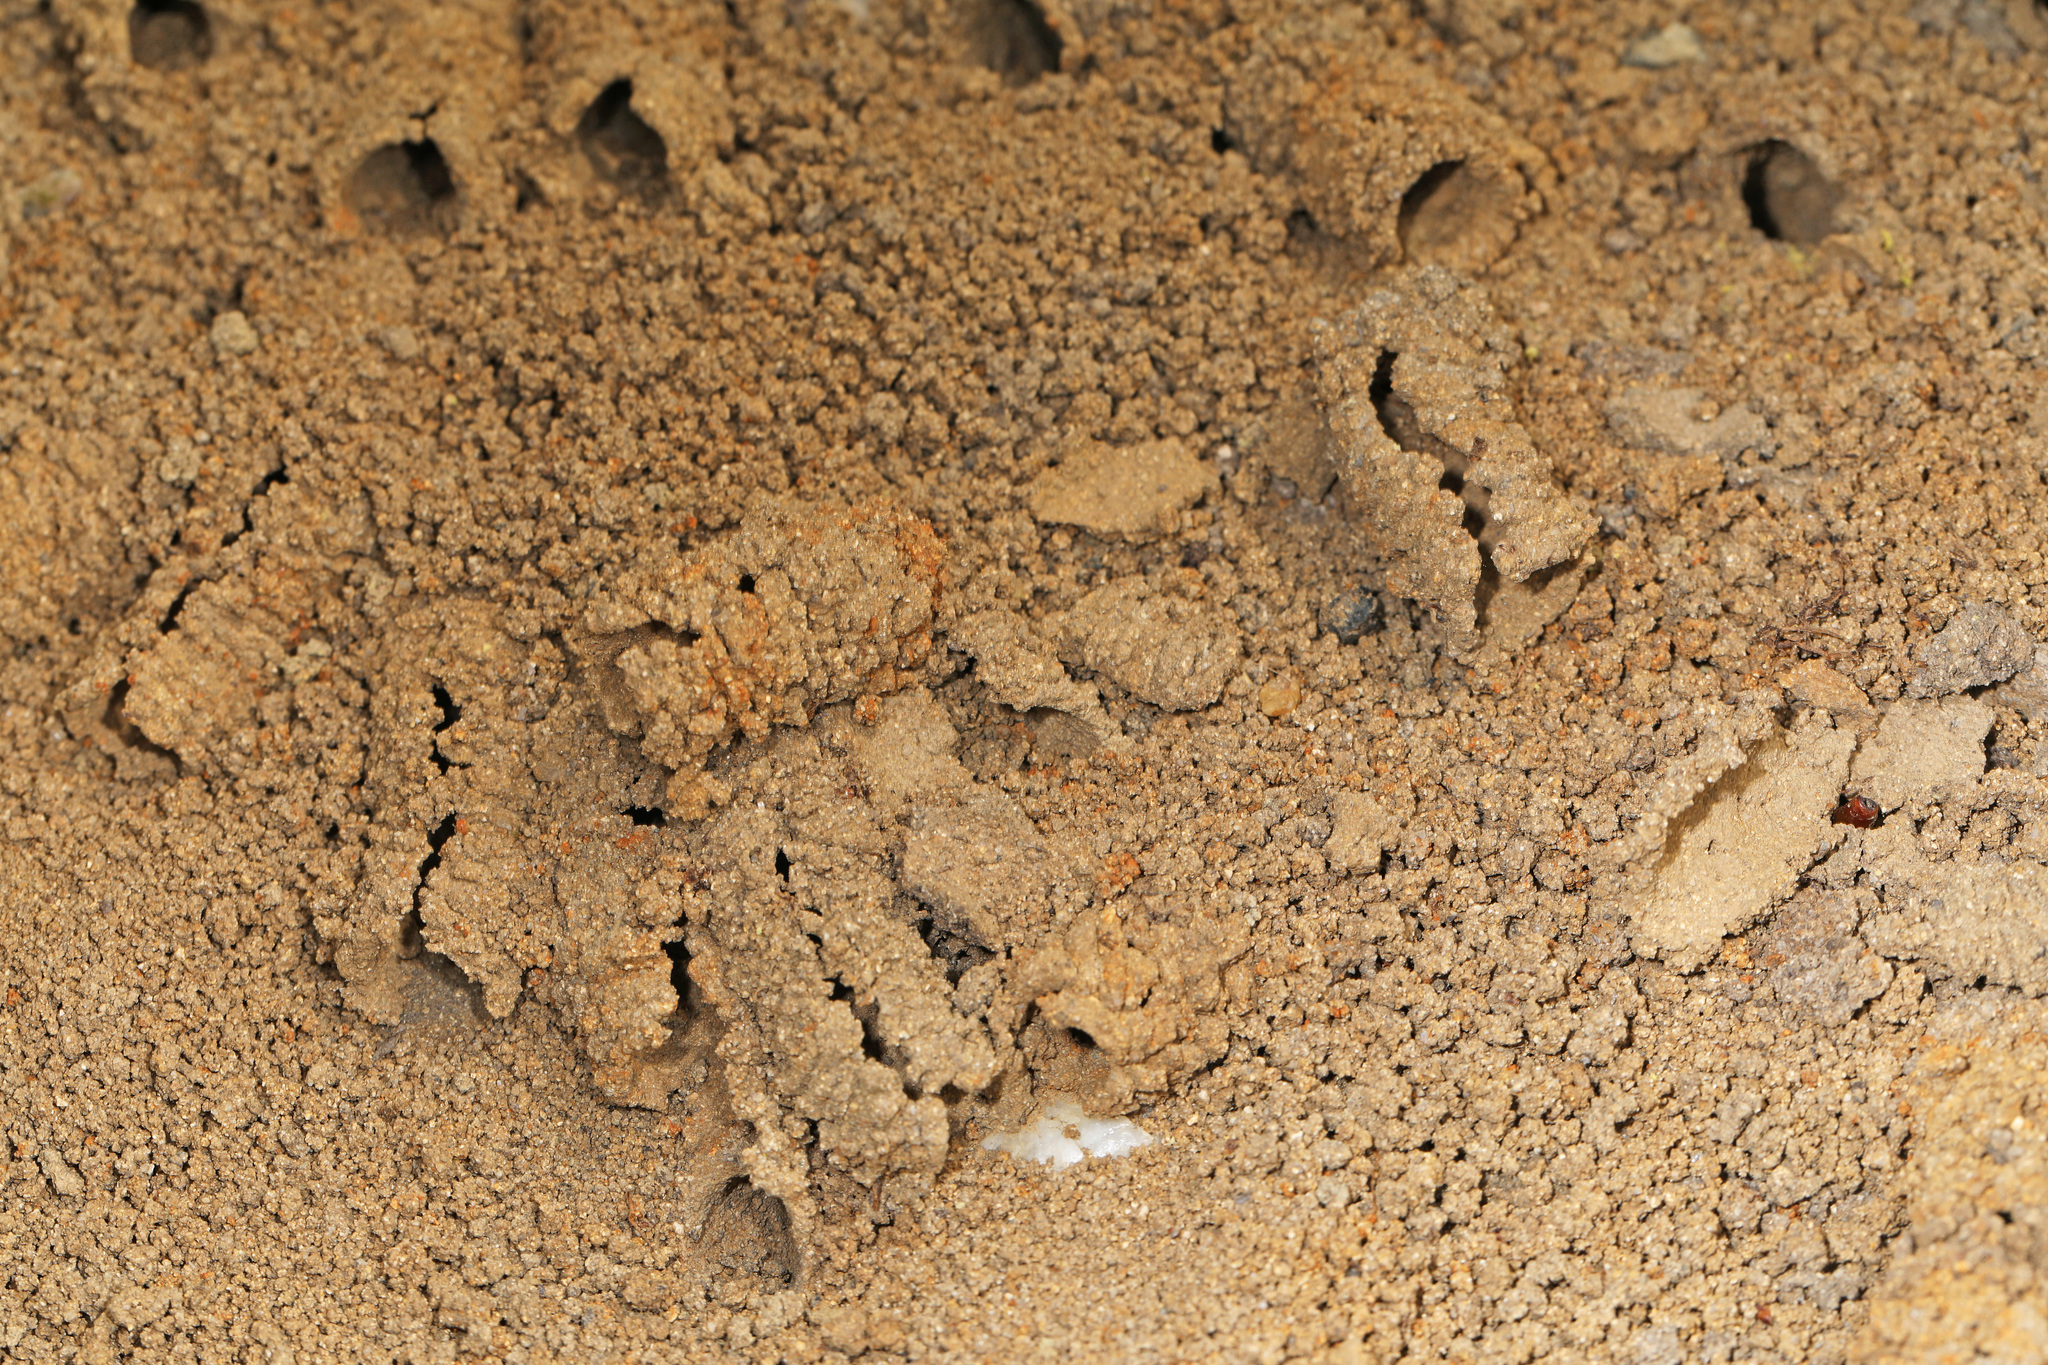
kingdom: Animalia
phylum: Arthropoda
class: Insecta
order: Hymenoptera
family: Apidae
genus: Anthophora
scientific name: Anthophora abrupta
